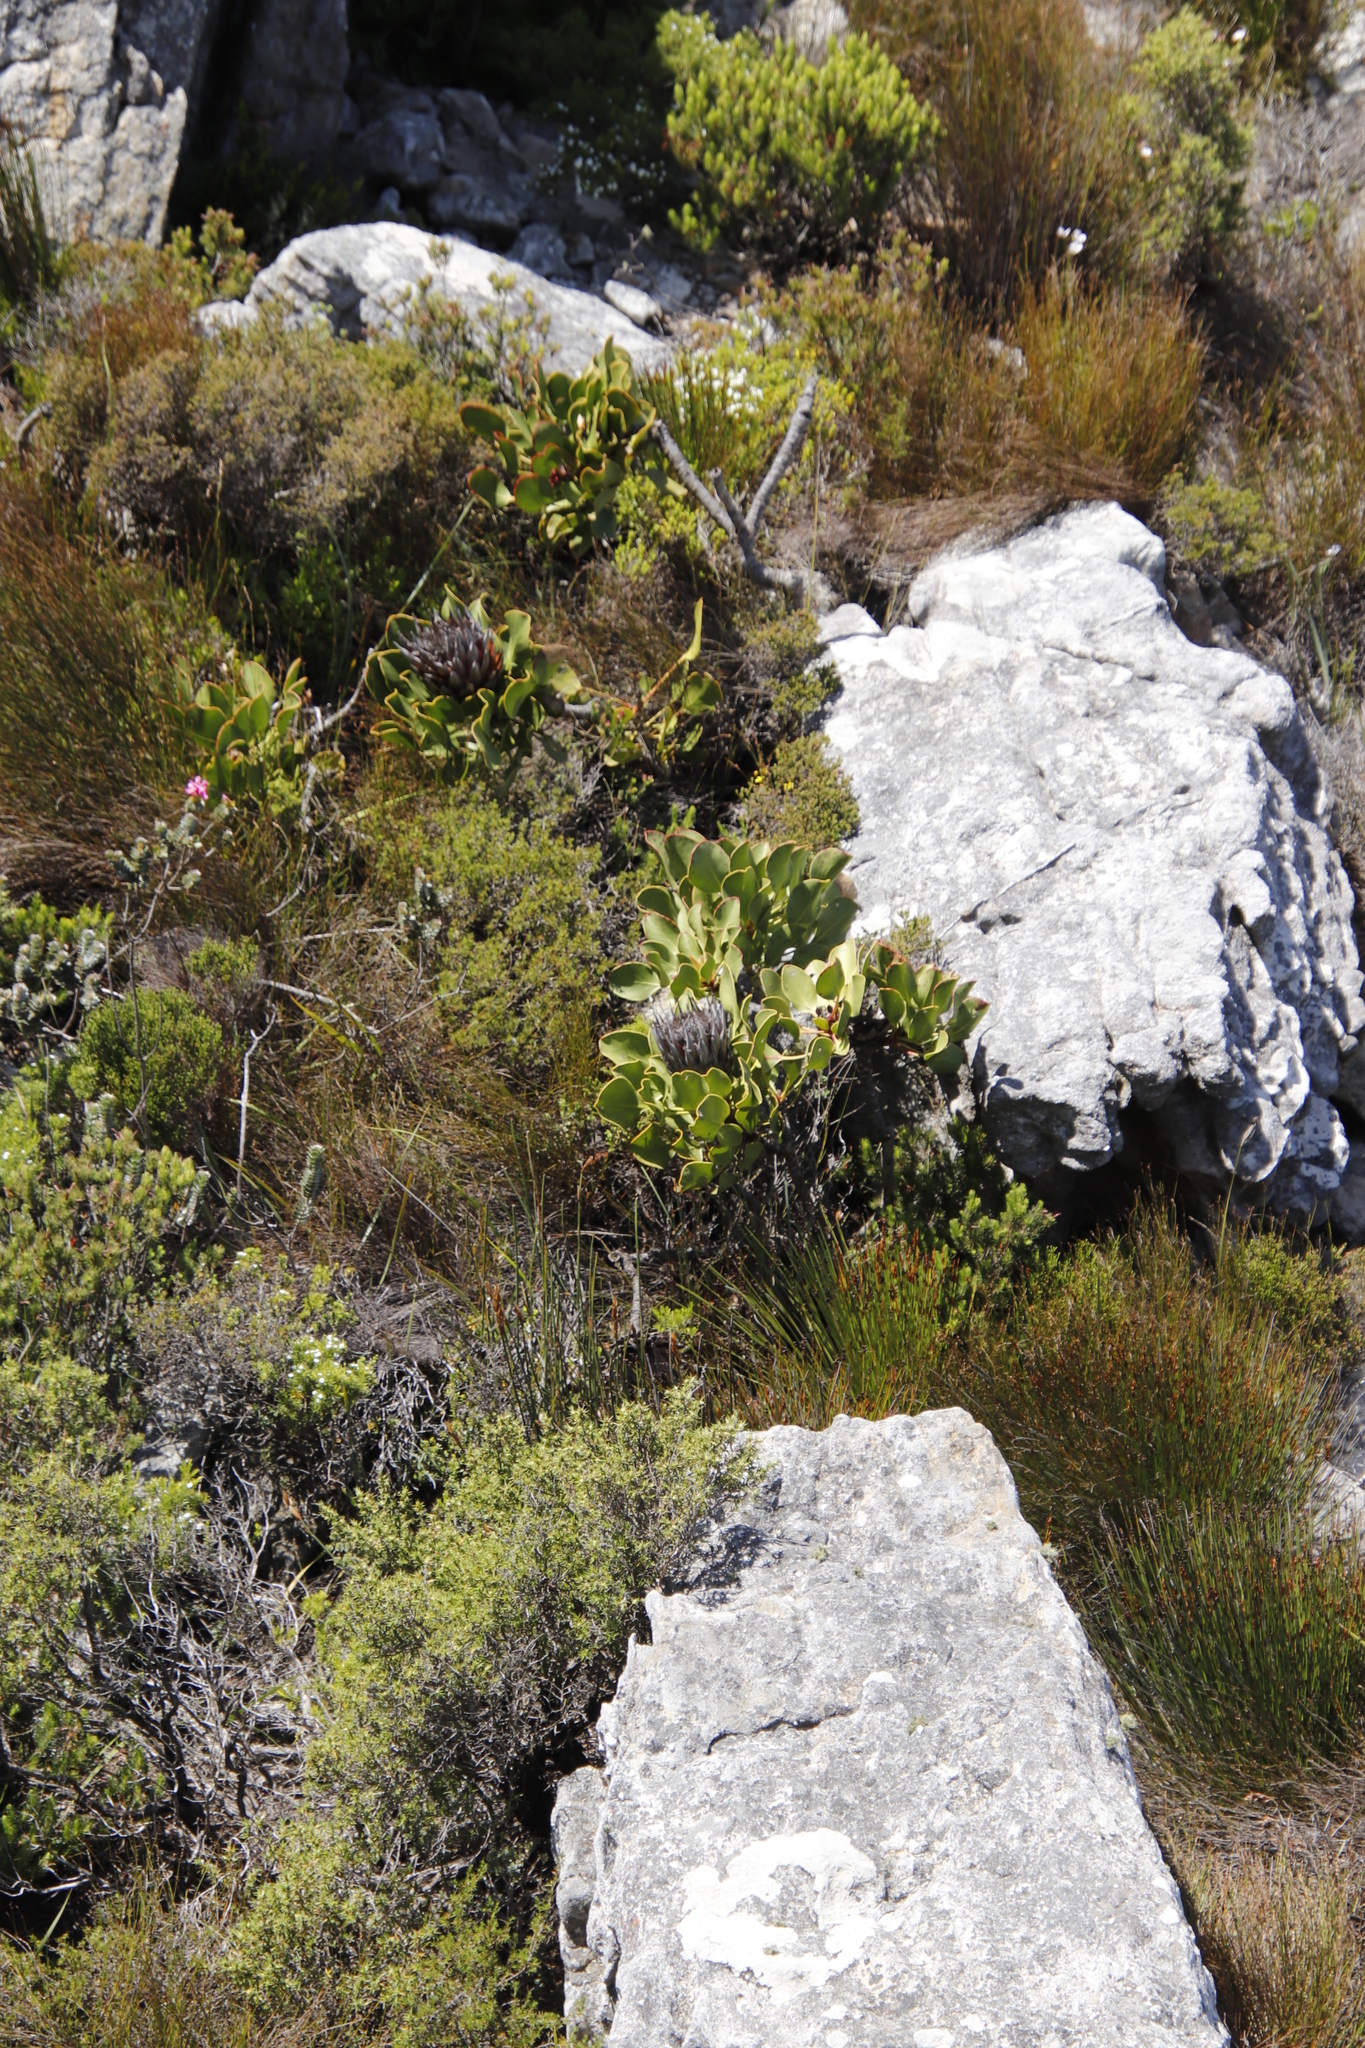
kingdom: Plantae
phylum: Tracheophyta
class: Magnoliopsida
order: Proteales
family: Proteaceae
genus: Protea
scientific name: Protea cynaroides
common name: King protea
